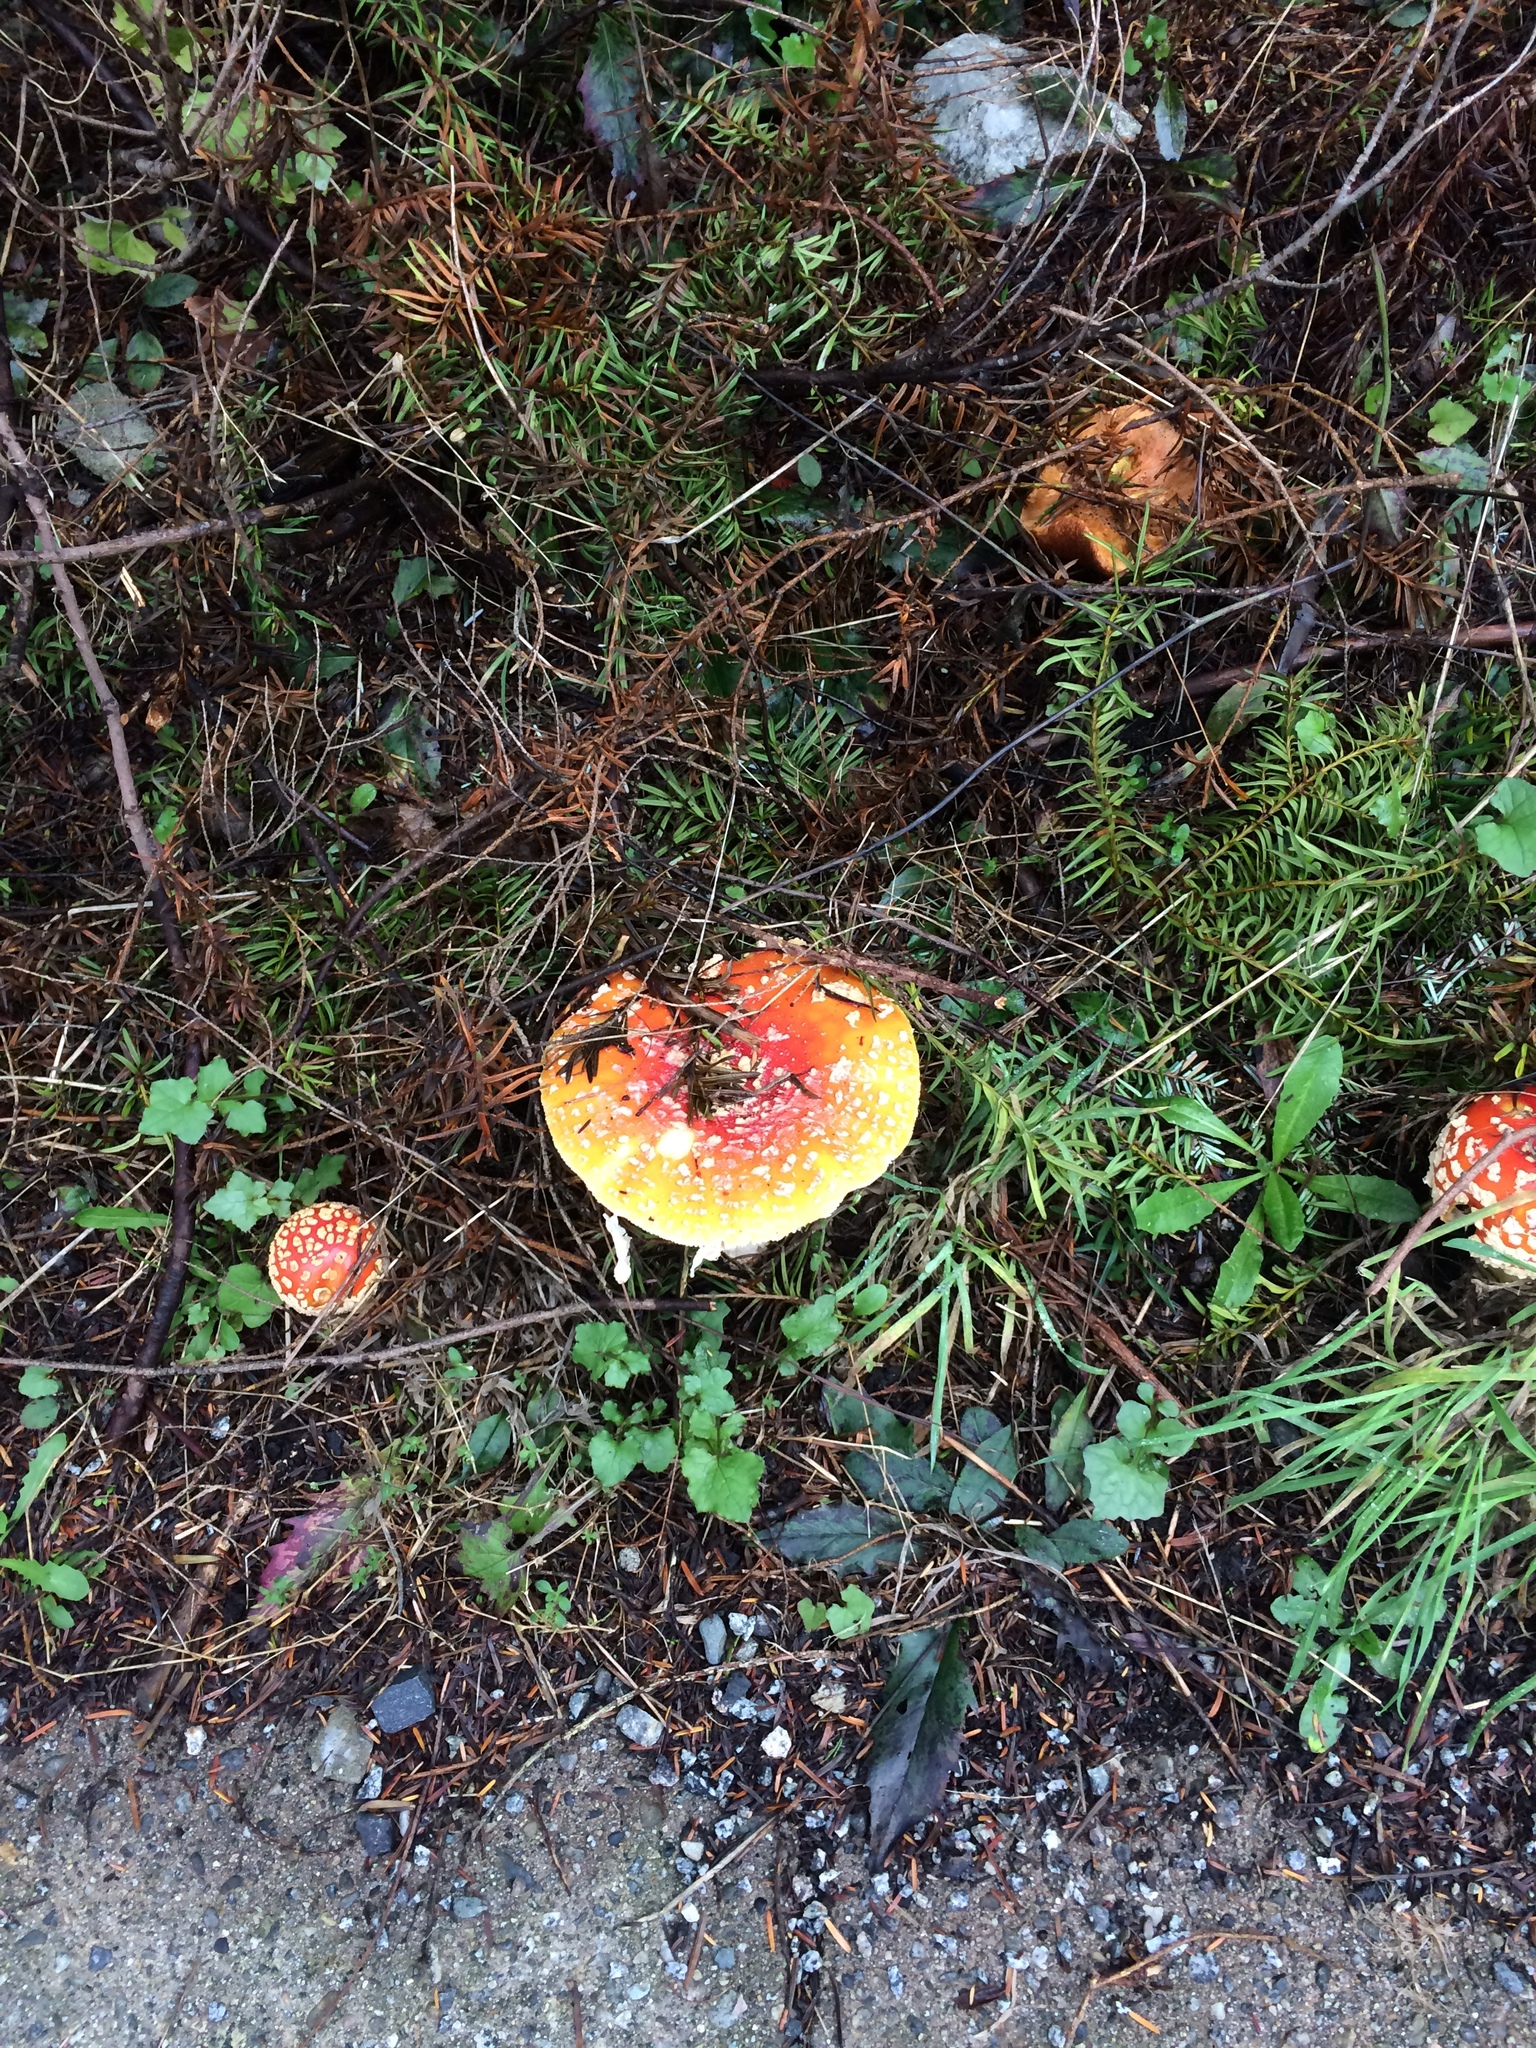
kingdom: Fungi
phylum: Basidiomycota
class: Agaricomycetes
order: Agaricales
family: Amanitaceae
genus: Amanita
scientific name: Amanita muscaria
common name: Fly agaric
